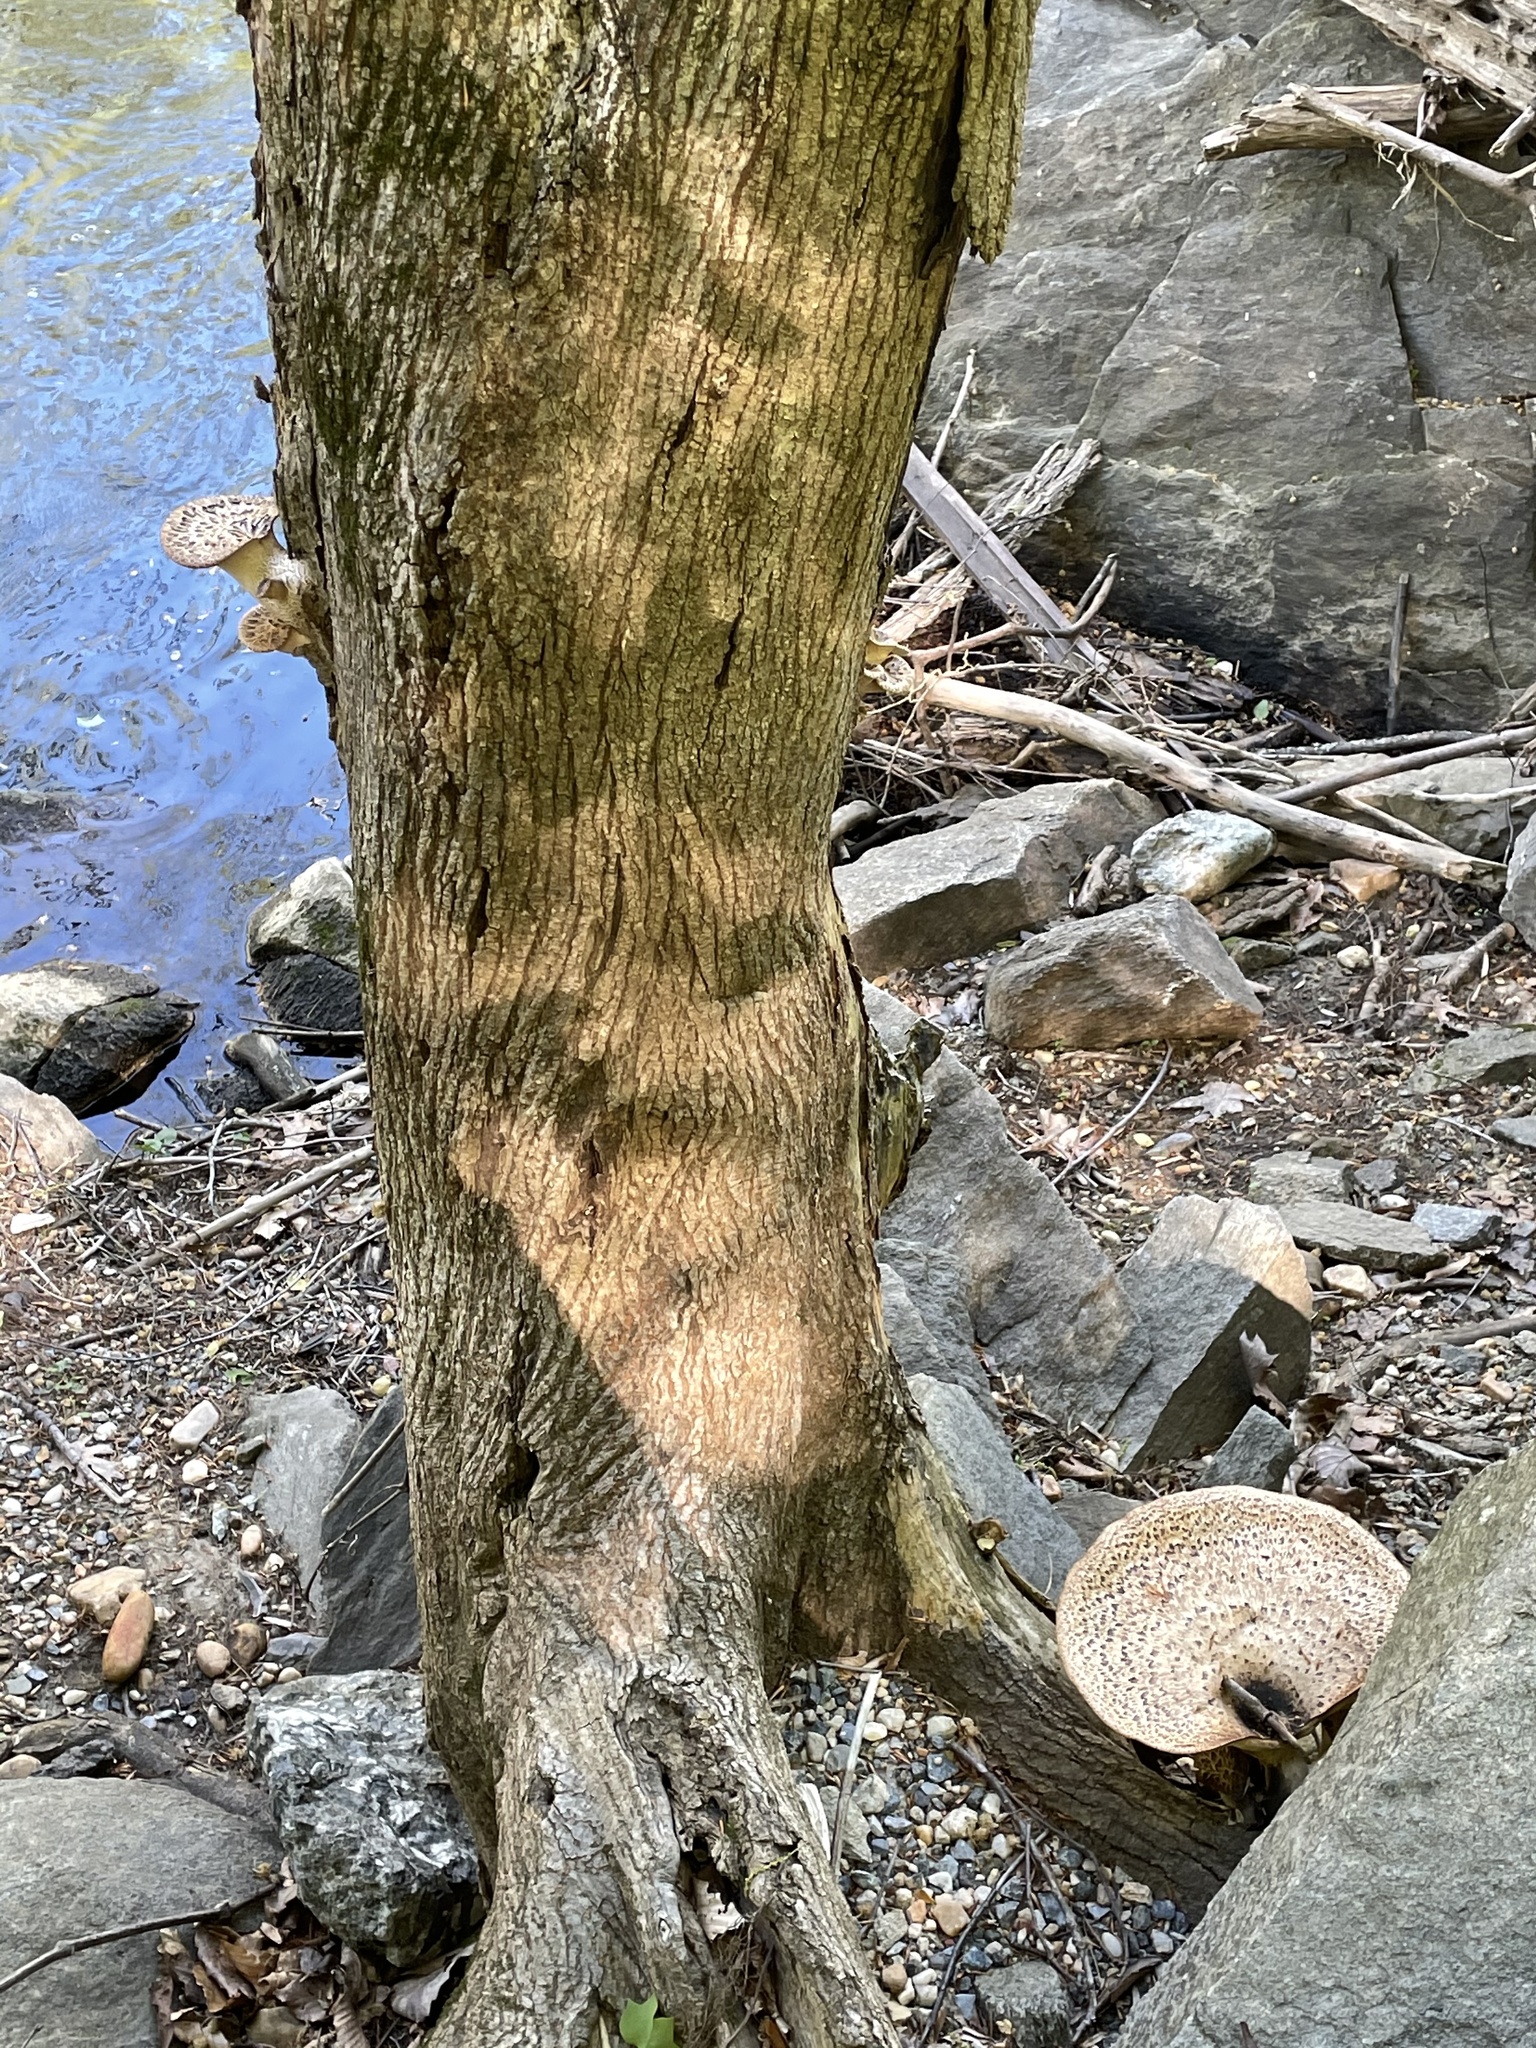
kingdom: Fungi
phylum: Basidiomycota
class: Agaricomycetes
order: Polyporales
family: Polyporaceae
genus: Cerioporus
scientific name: Cerioporus squamosus
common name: Dryad's saddle
